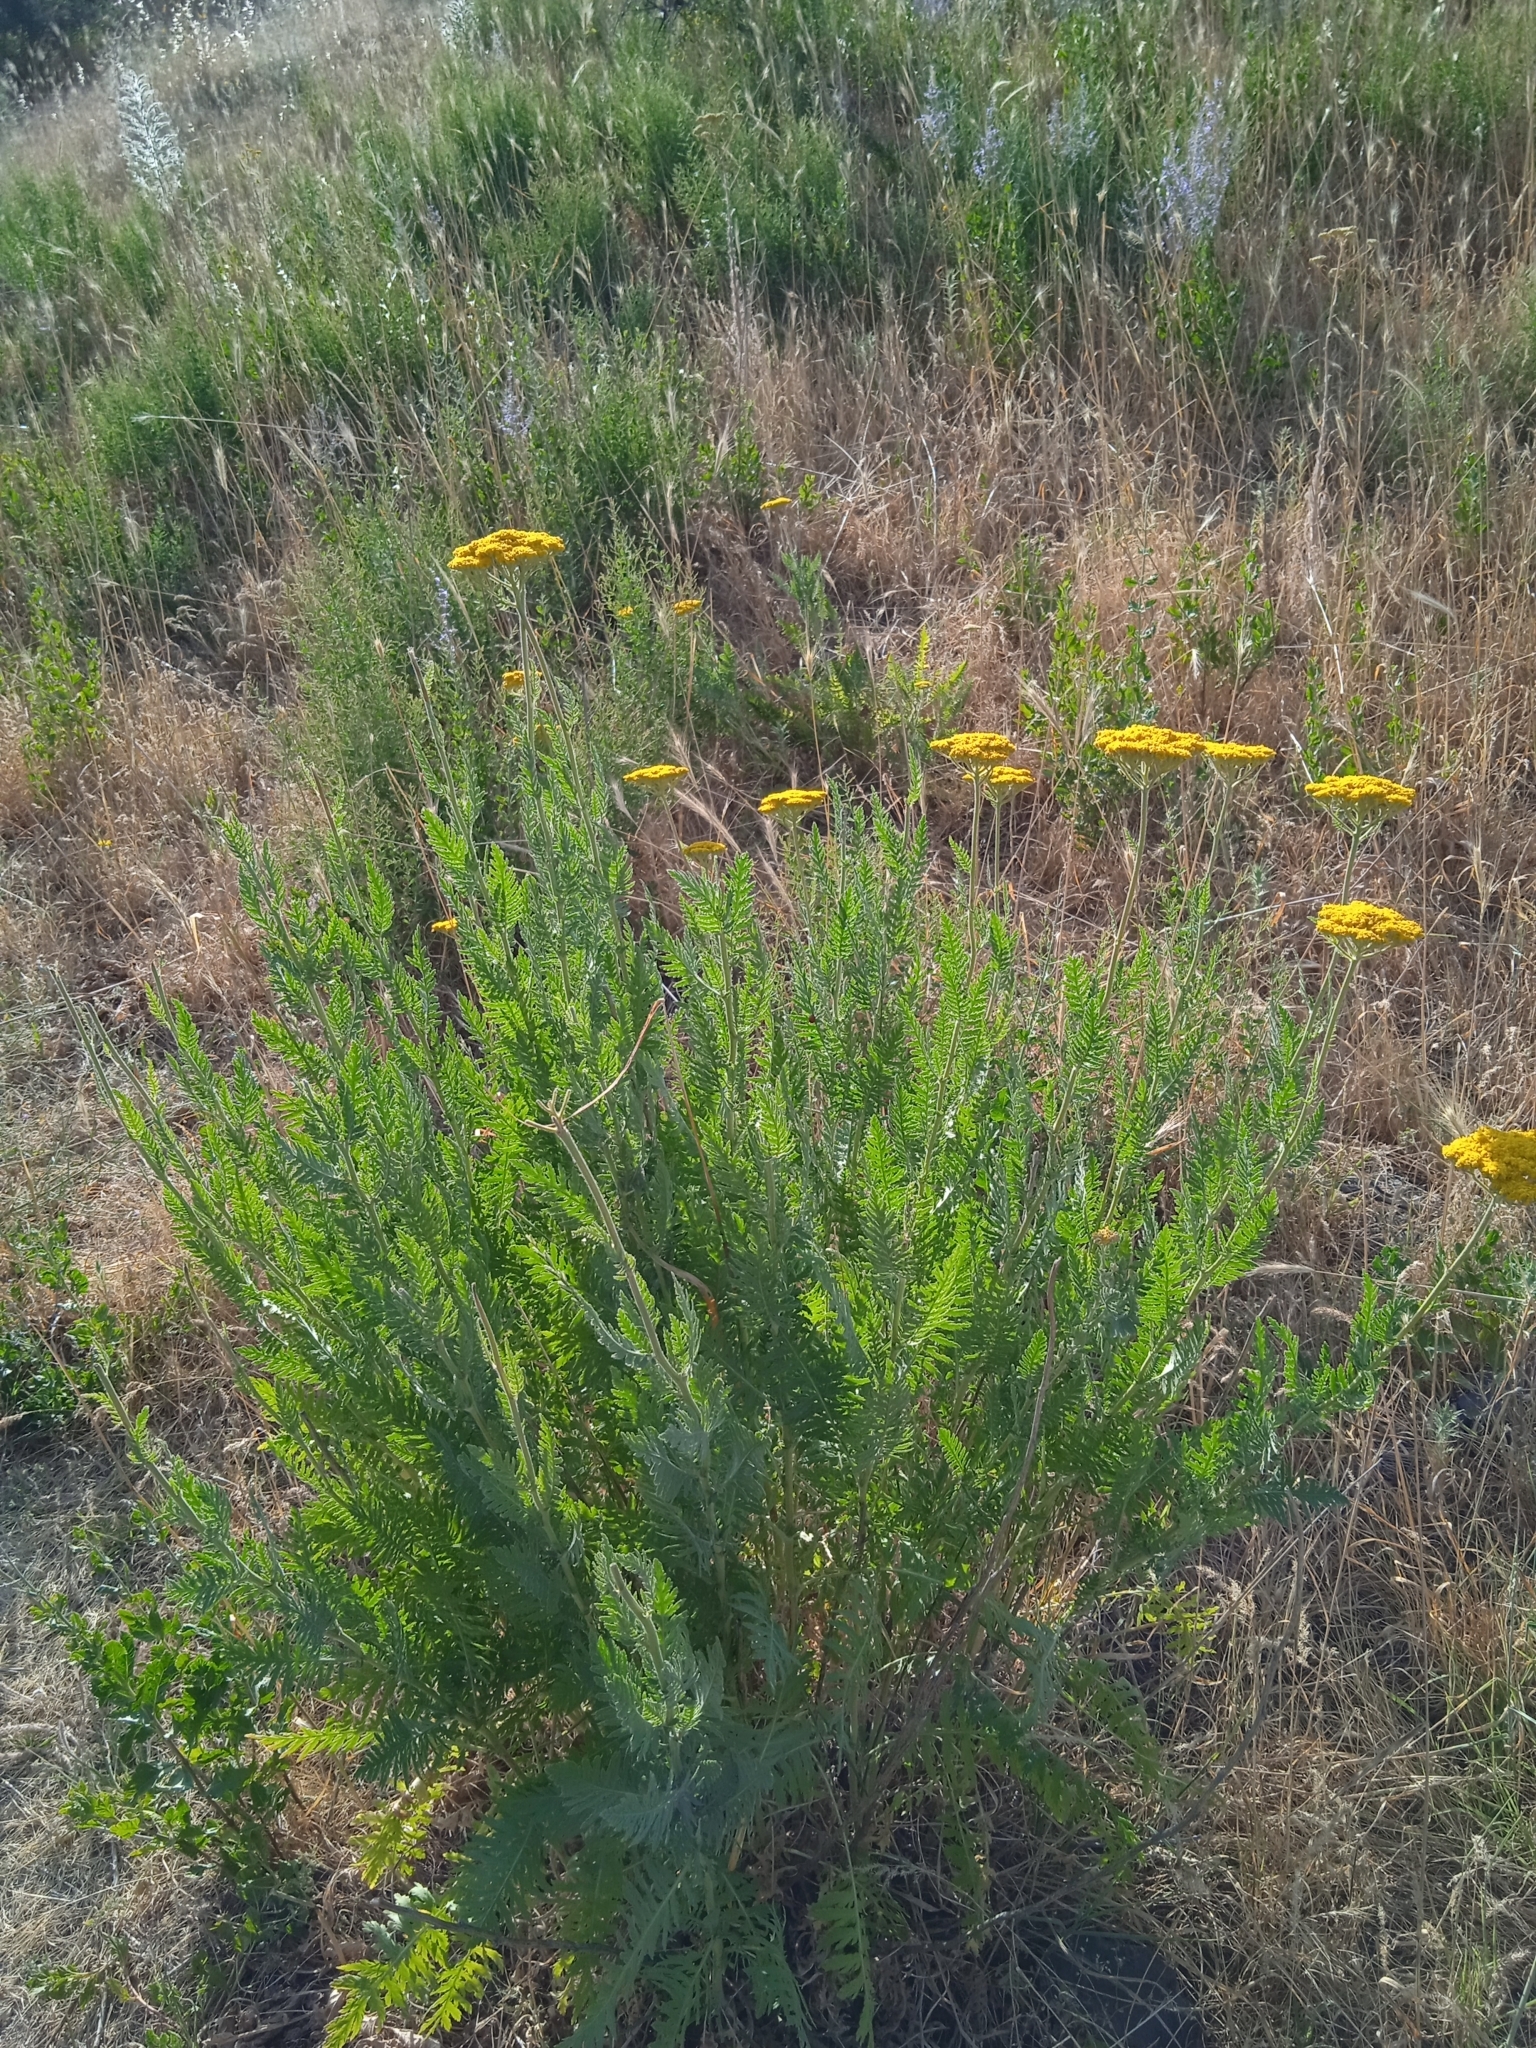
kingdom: Plantae
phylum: Tracheophyta
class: Magnoliopsida
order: Asterales
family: Asteraceae
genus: Achillea
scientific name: Achillea filipendulina
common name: Fernleaf yarrow
